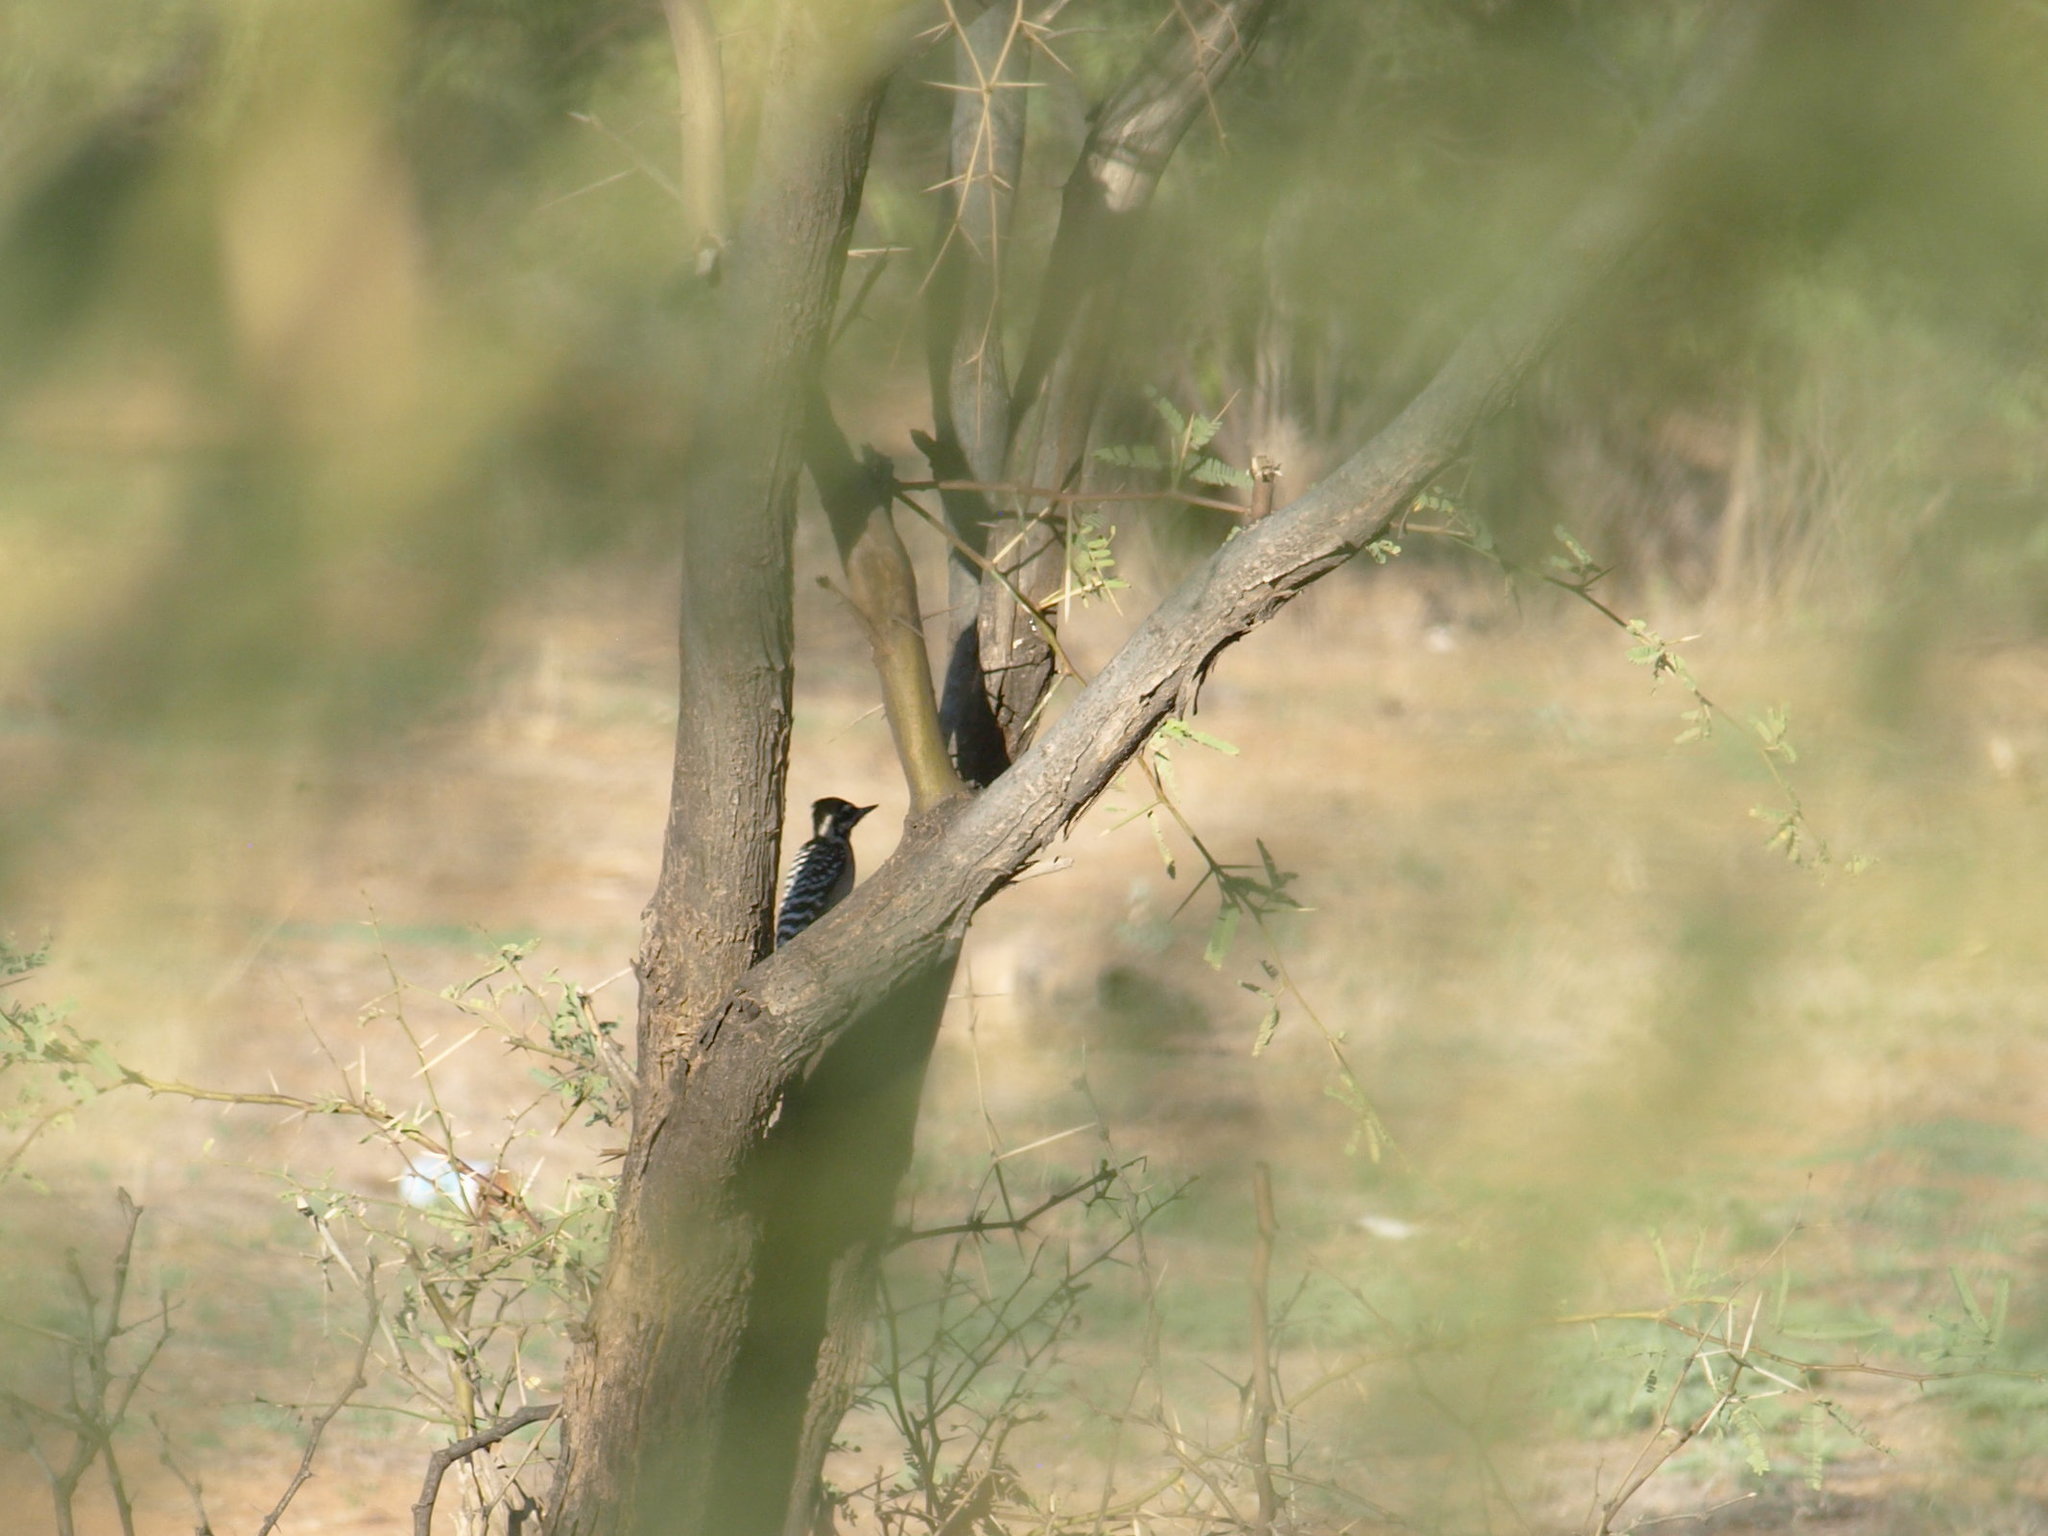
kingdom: Animalia
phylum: Chordata
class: Aves
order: Piciformes
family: Picidae
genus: Dryobates
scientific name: Dryobates scalaris
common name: Ladder-backed woodpecker
